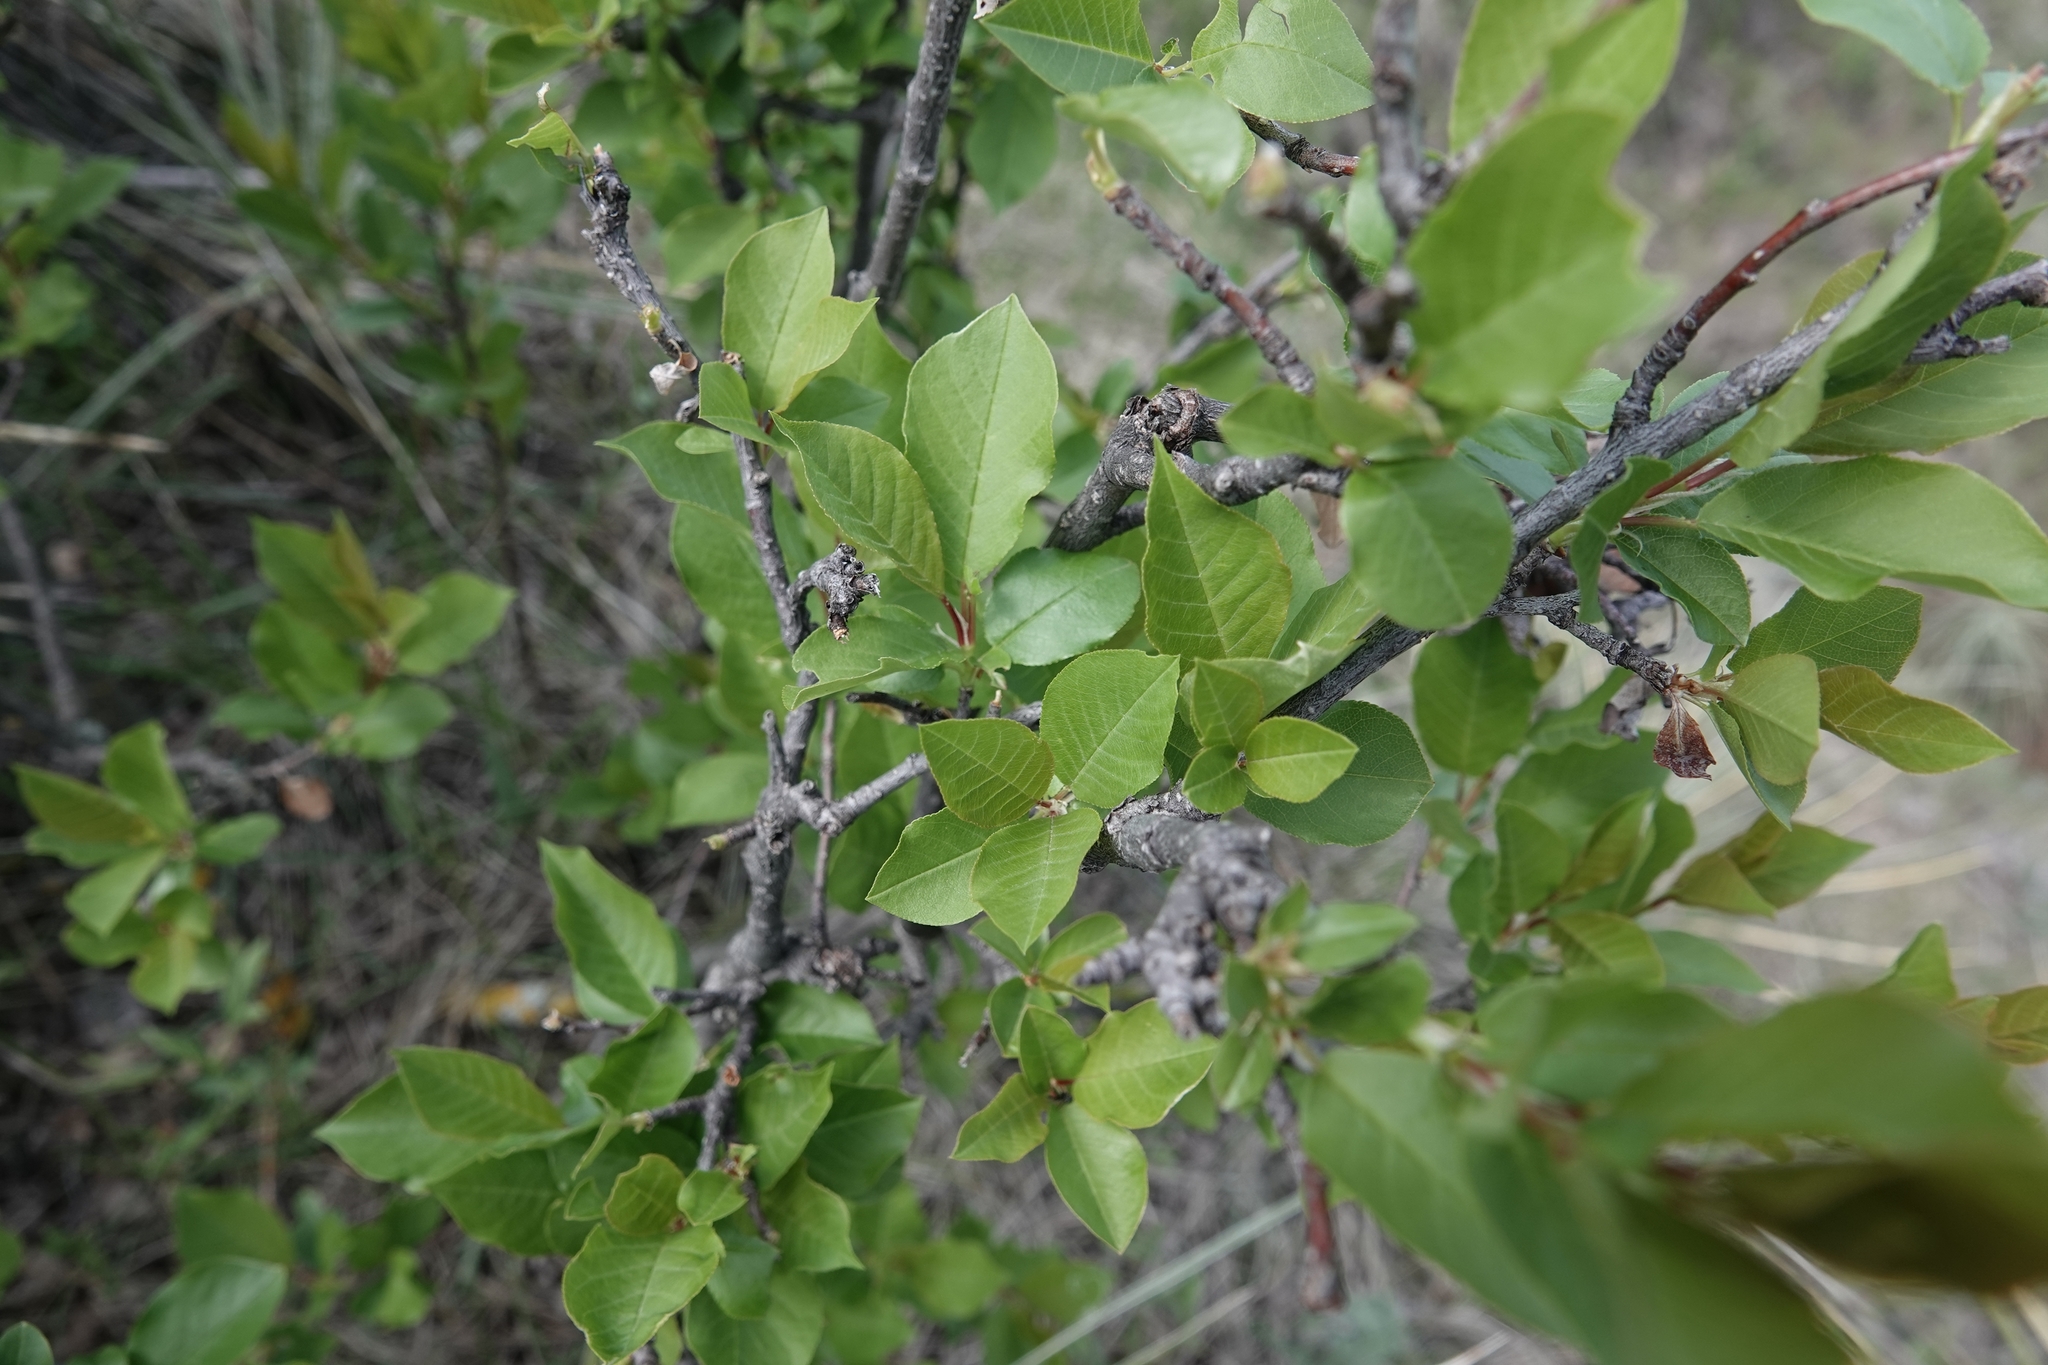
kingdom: Plantae
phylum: Tracheophyta
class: Magnoliopsida
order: Rosales
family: Rosaceae
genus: Prunus
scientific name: Prunus virginiana
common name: Chokecherry
